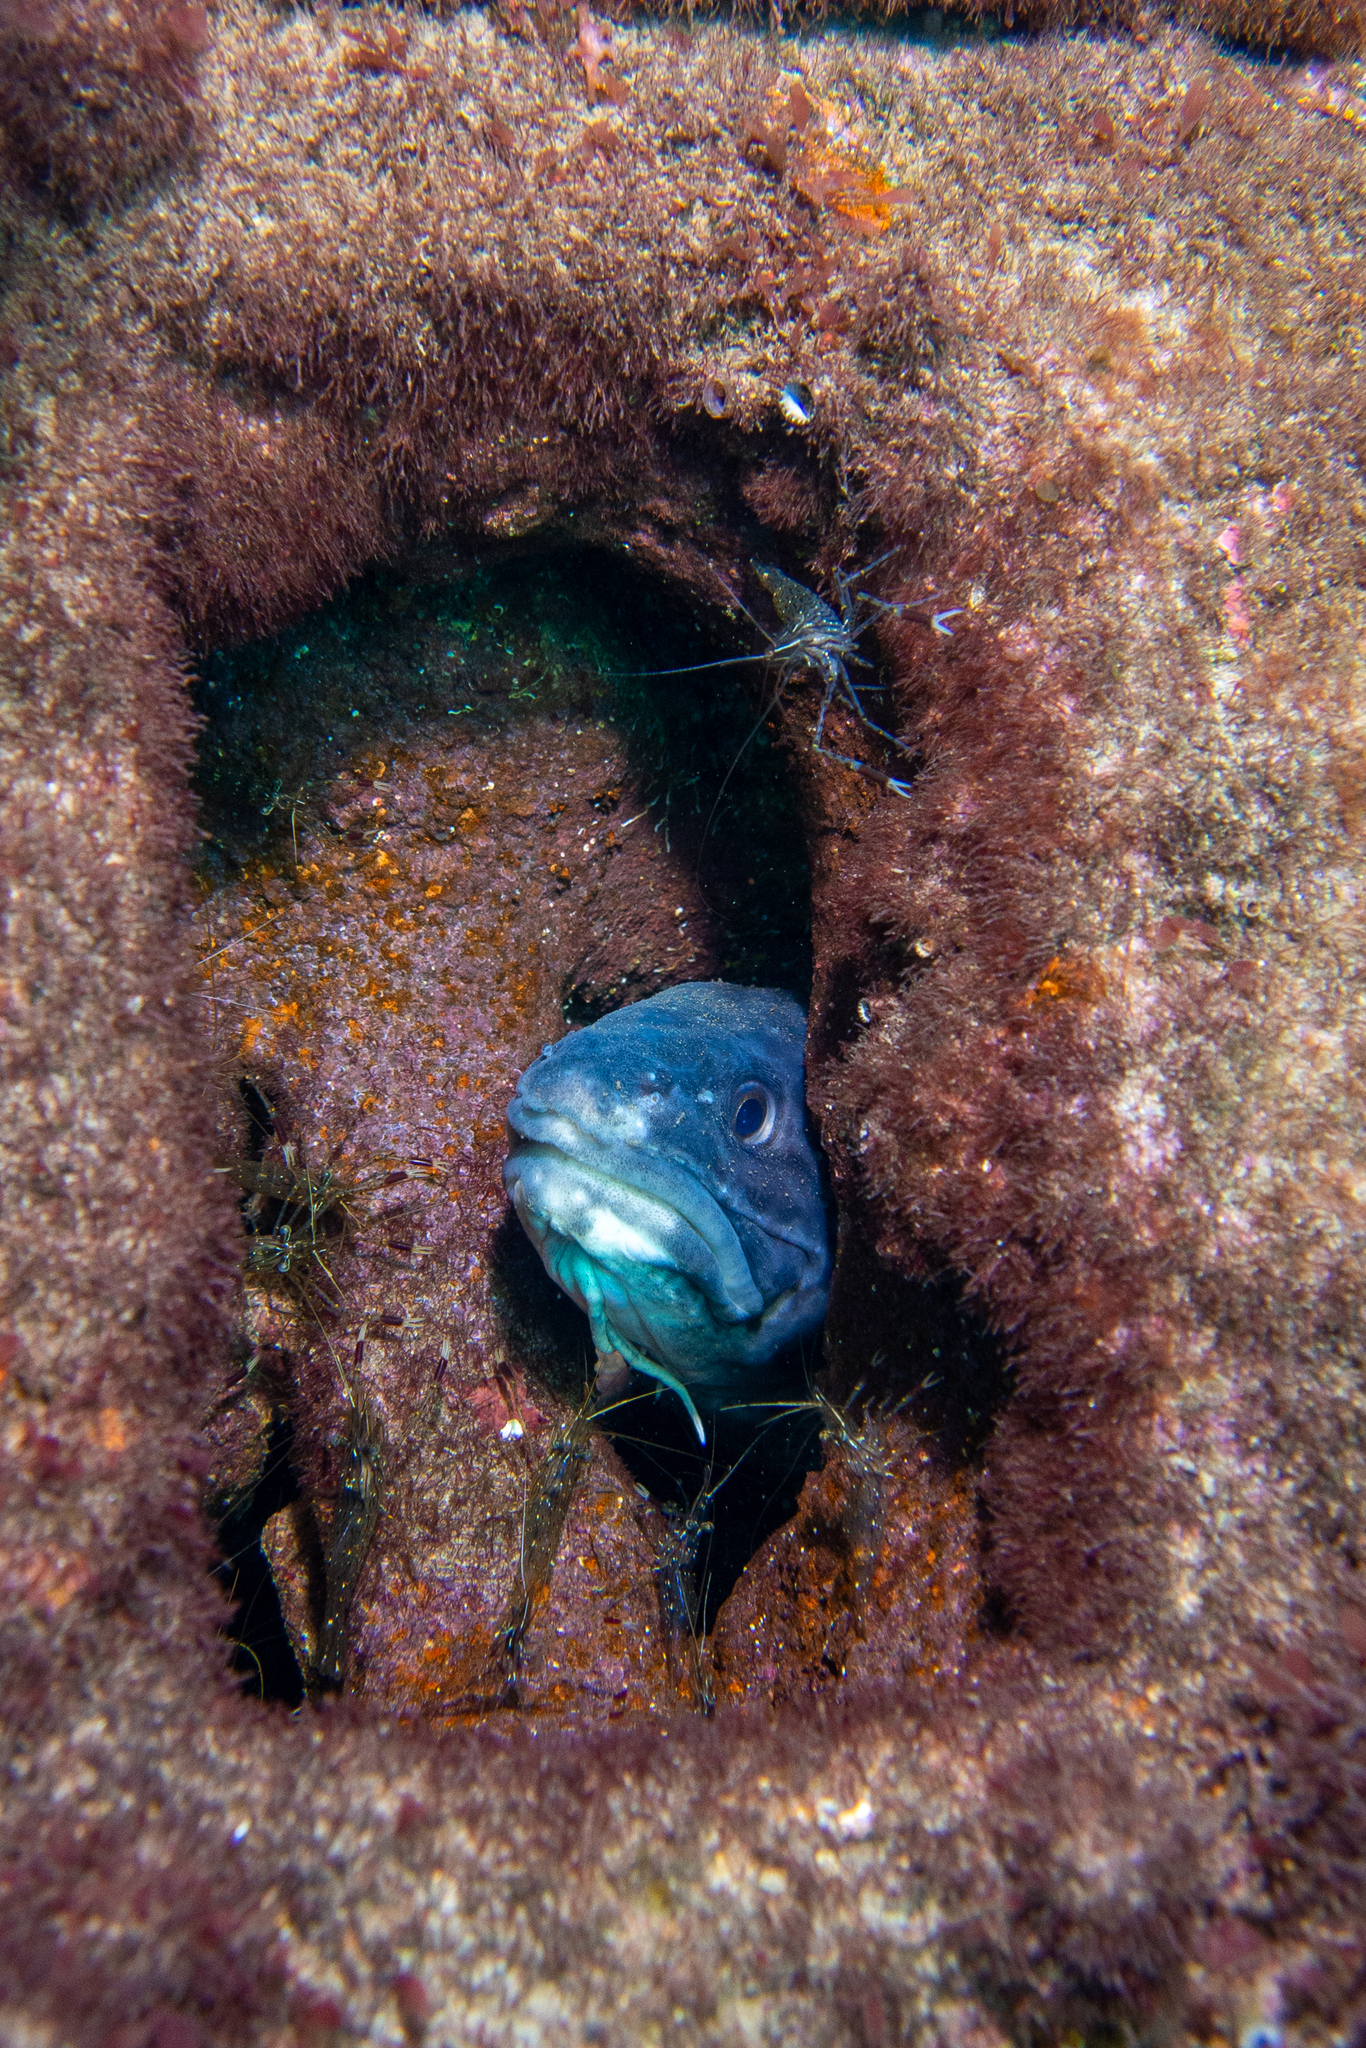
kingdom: Animalia
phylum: Chordata
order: Ophidiiformes
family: Ophidiidae
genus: Genypterus
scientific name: Genypterus tigerinus
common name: Rock ling
